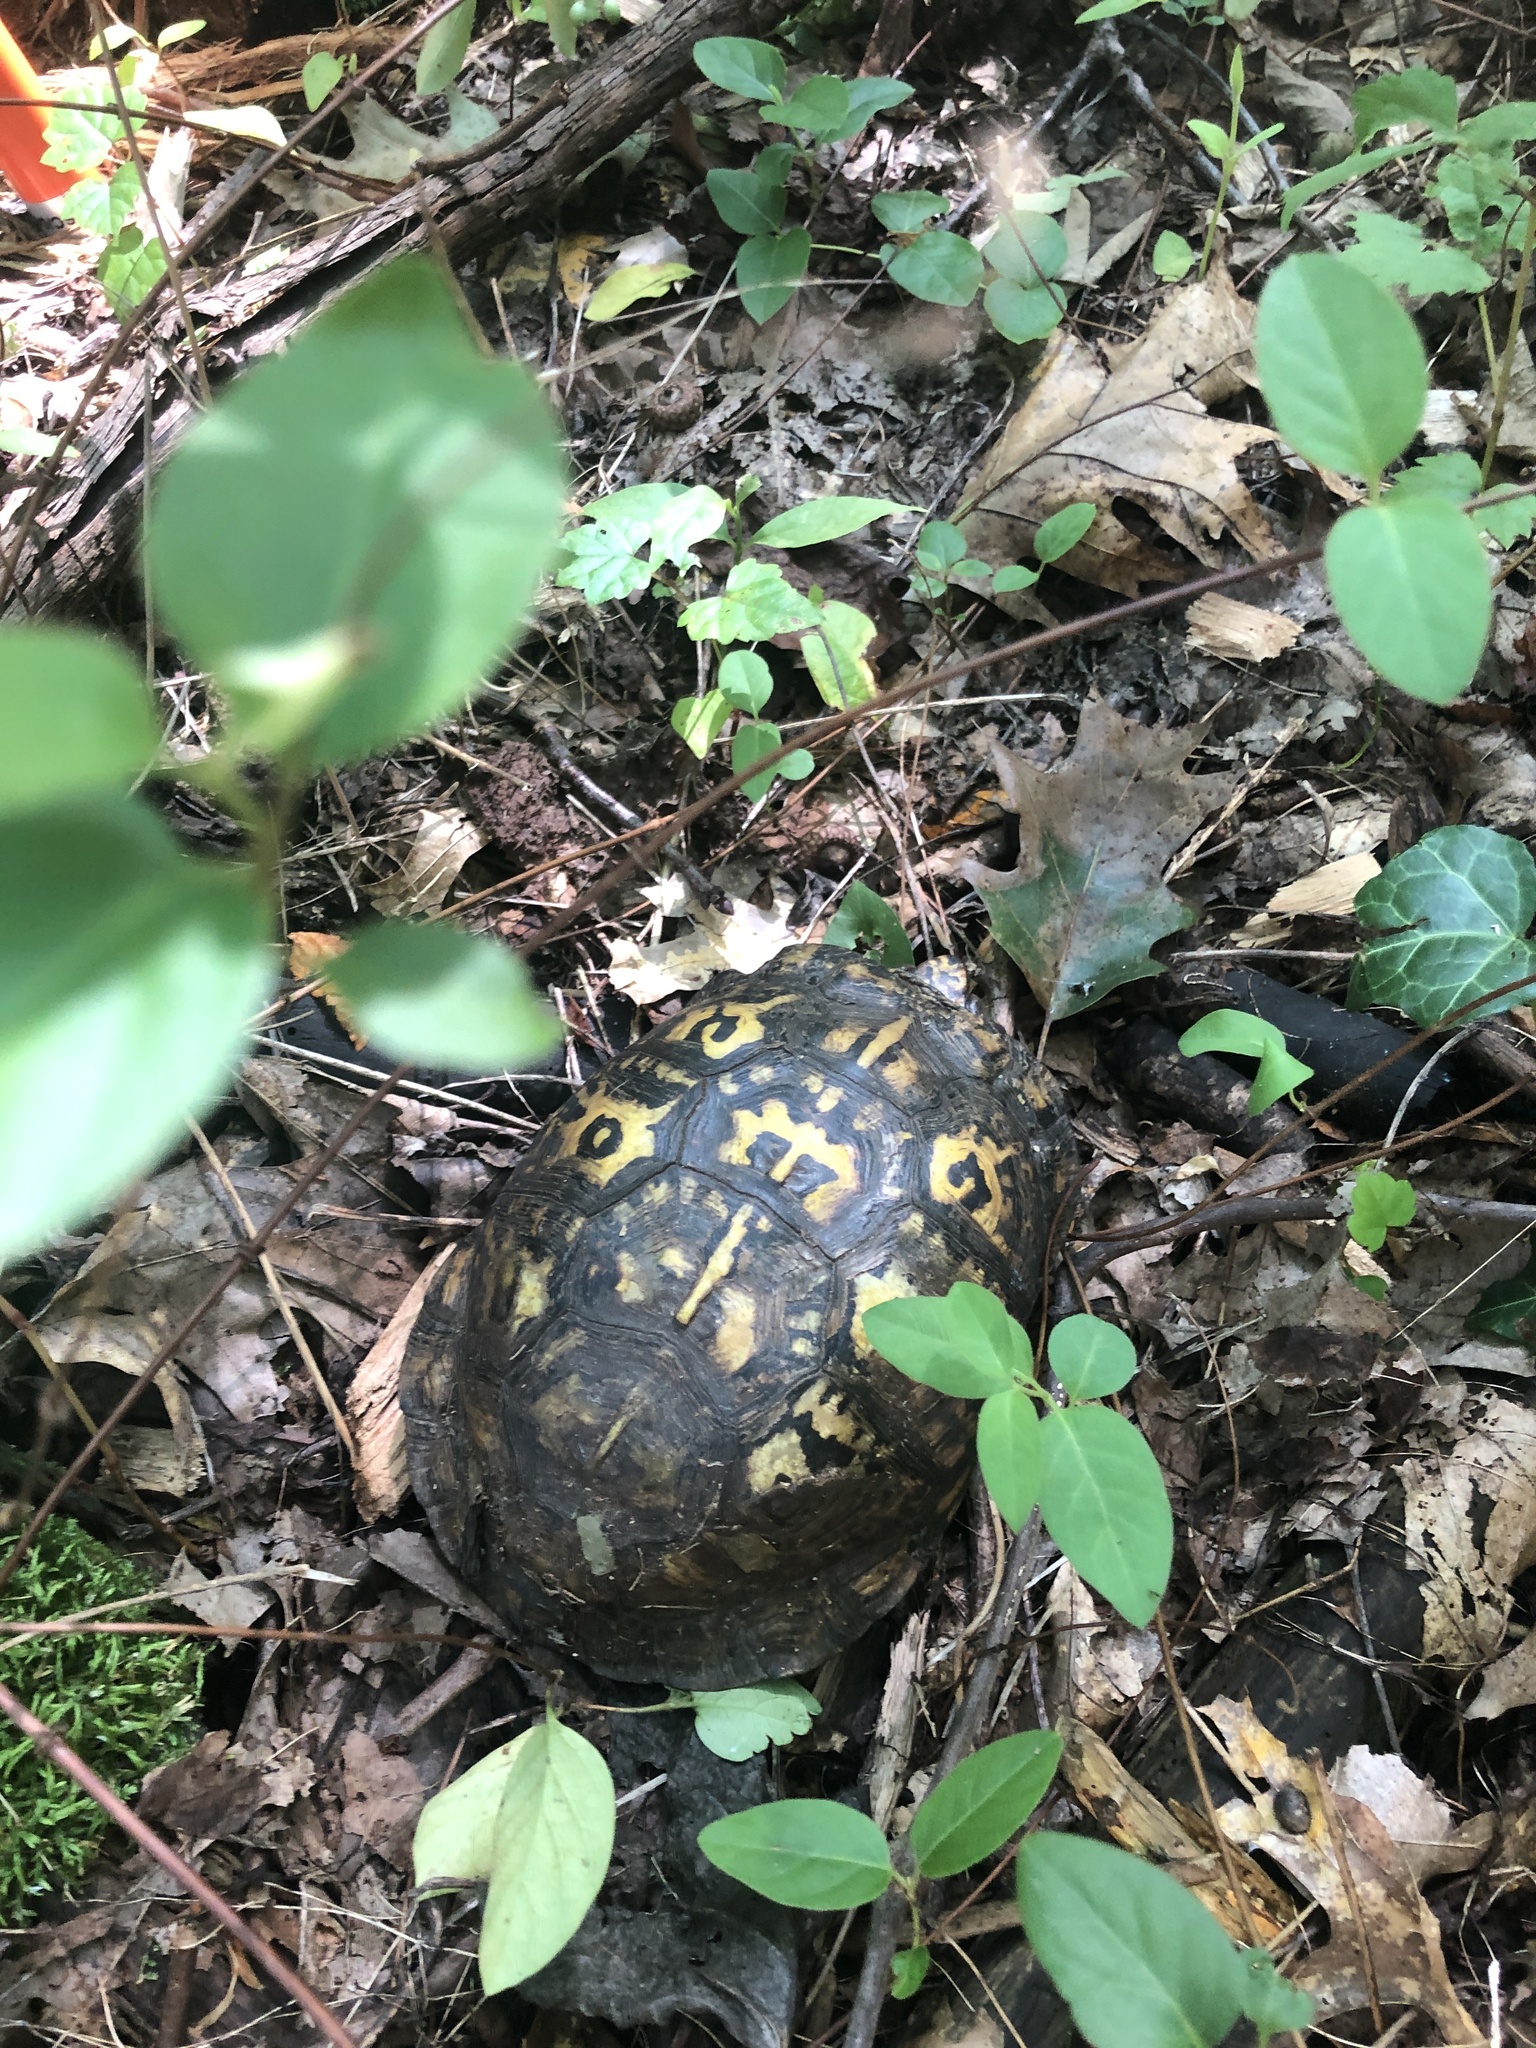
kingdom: Animalia
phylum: Chordata
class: Testudines
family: Emydidae
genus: Terrapene
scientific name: Terrapene carolina
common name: Common box turtle
